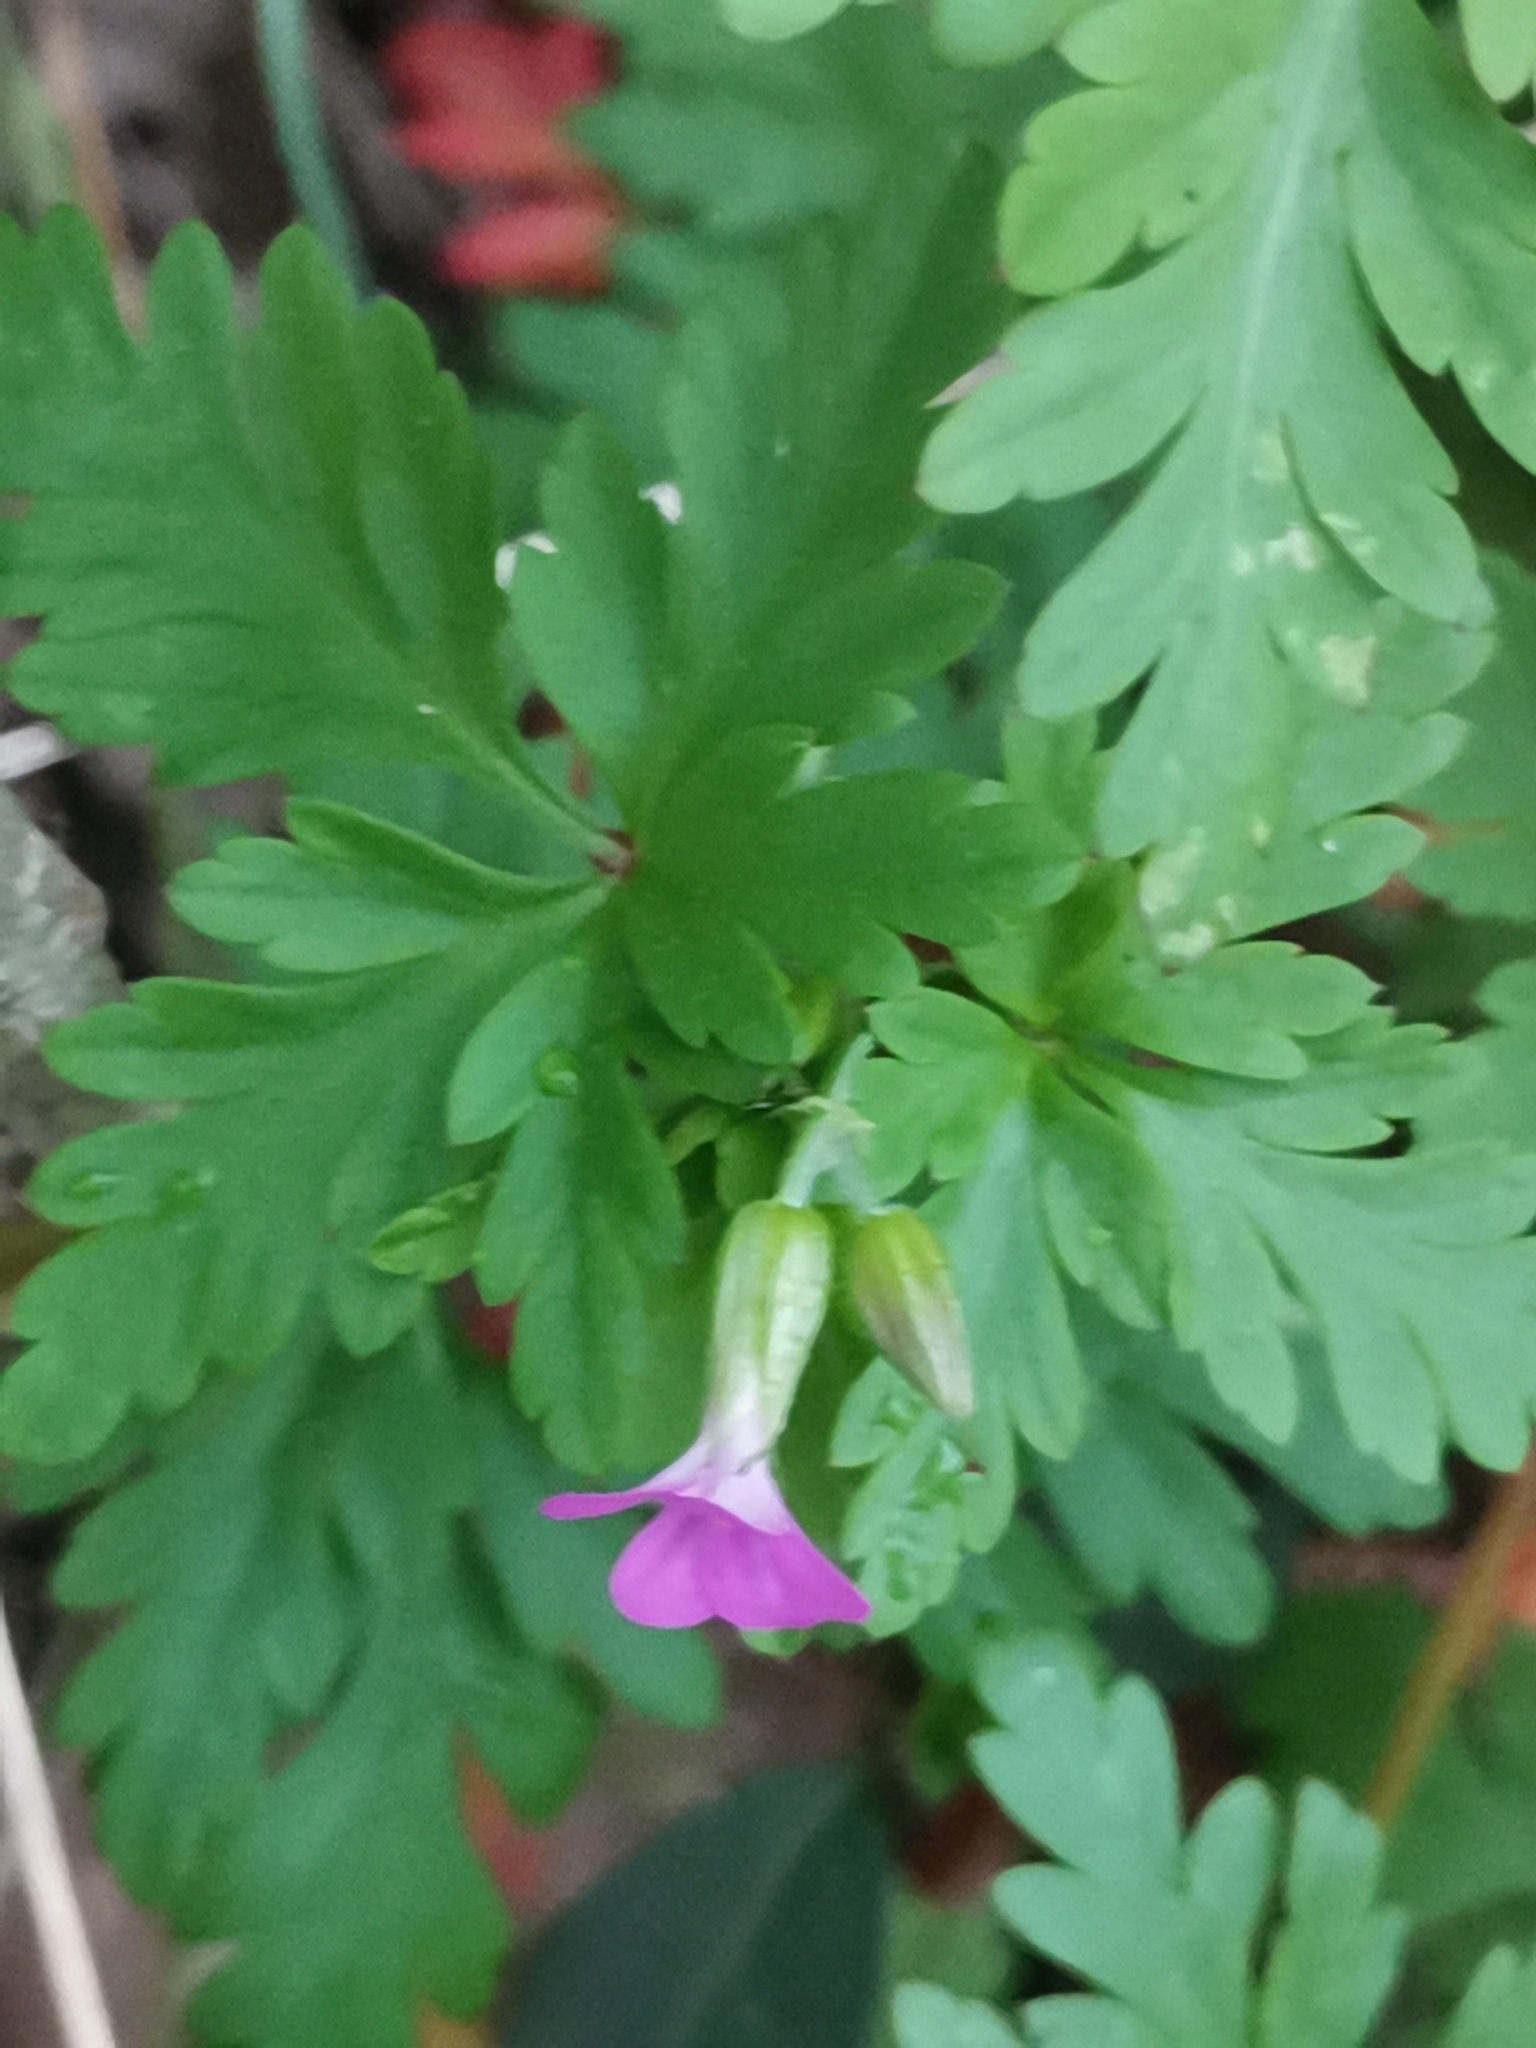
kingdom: Plantae
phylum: Tracheophyta
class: Magnoliopsida
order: Geraniales
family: Geraniaceae
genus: Geranium
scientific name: Geranium purpureum
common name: Little-robin
